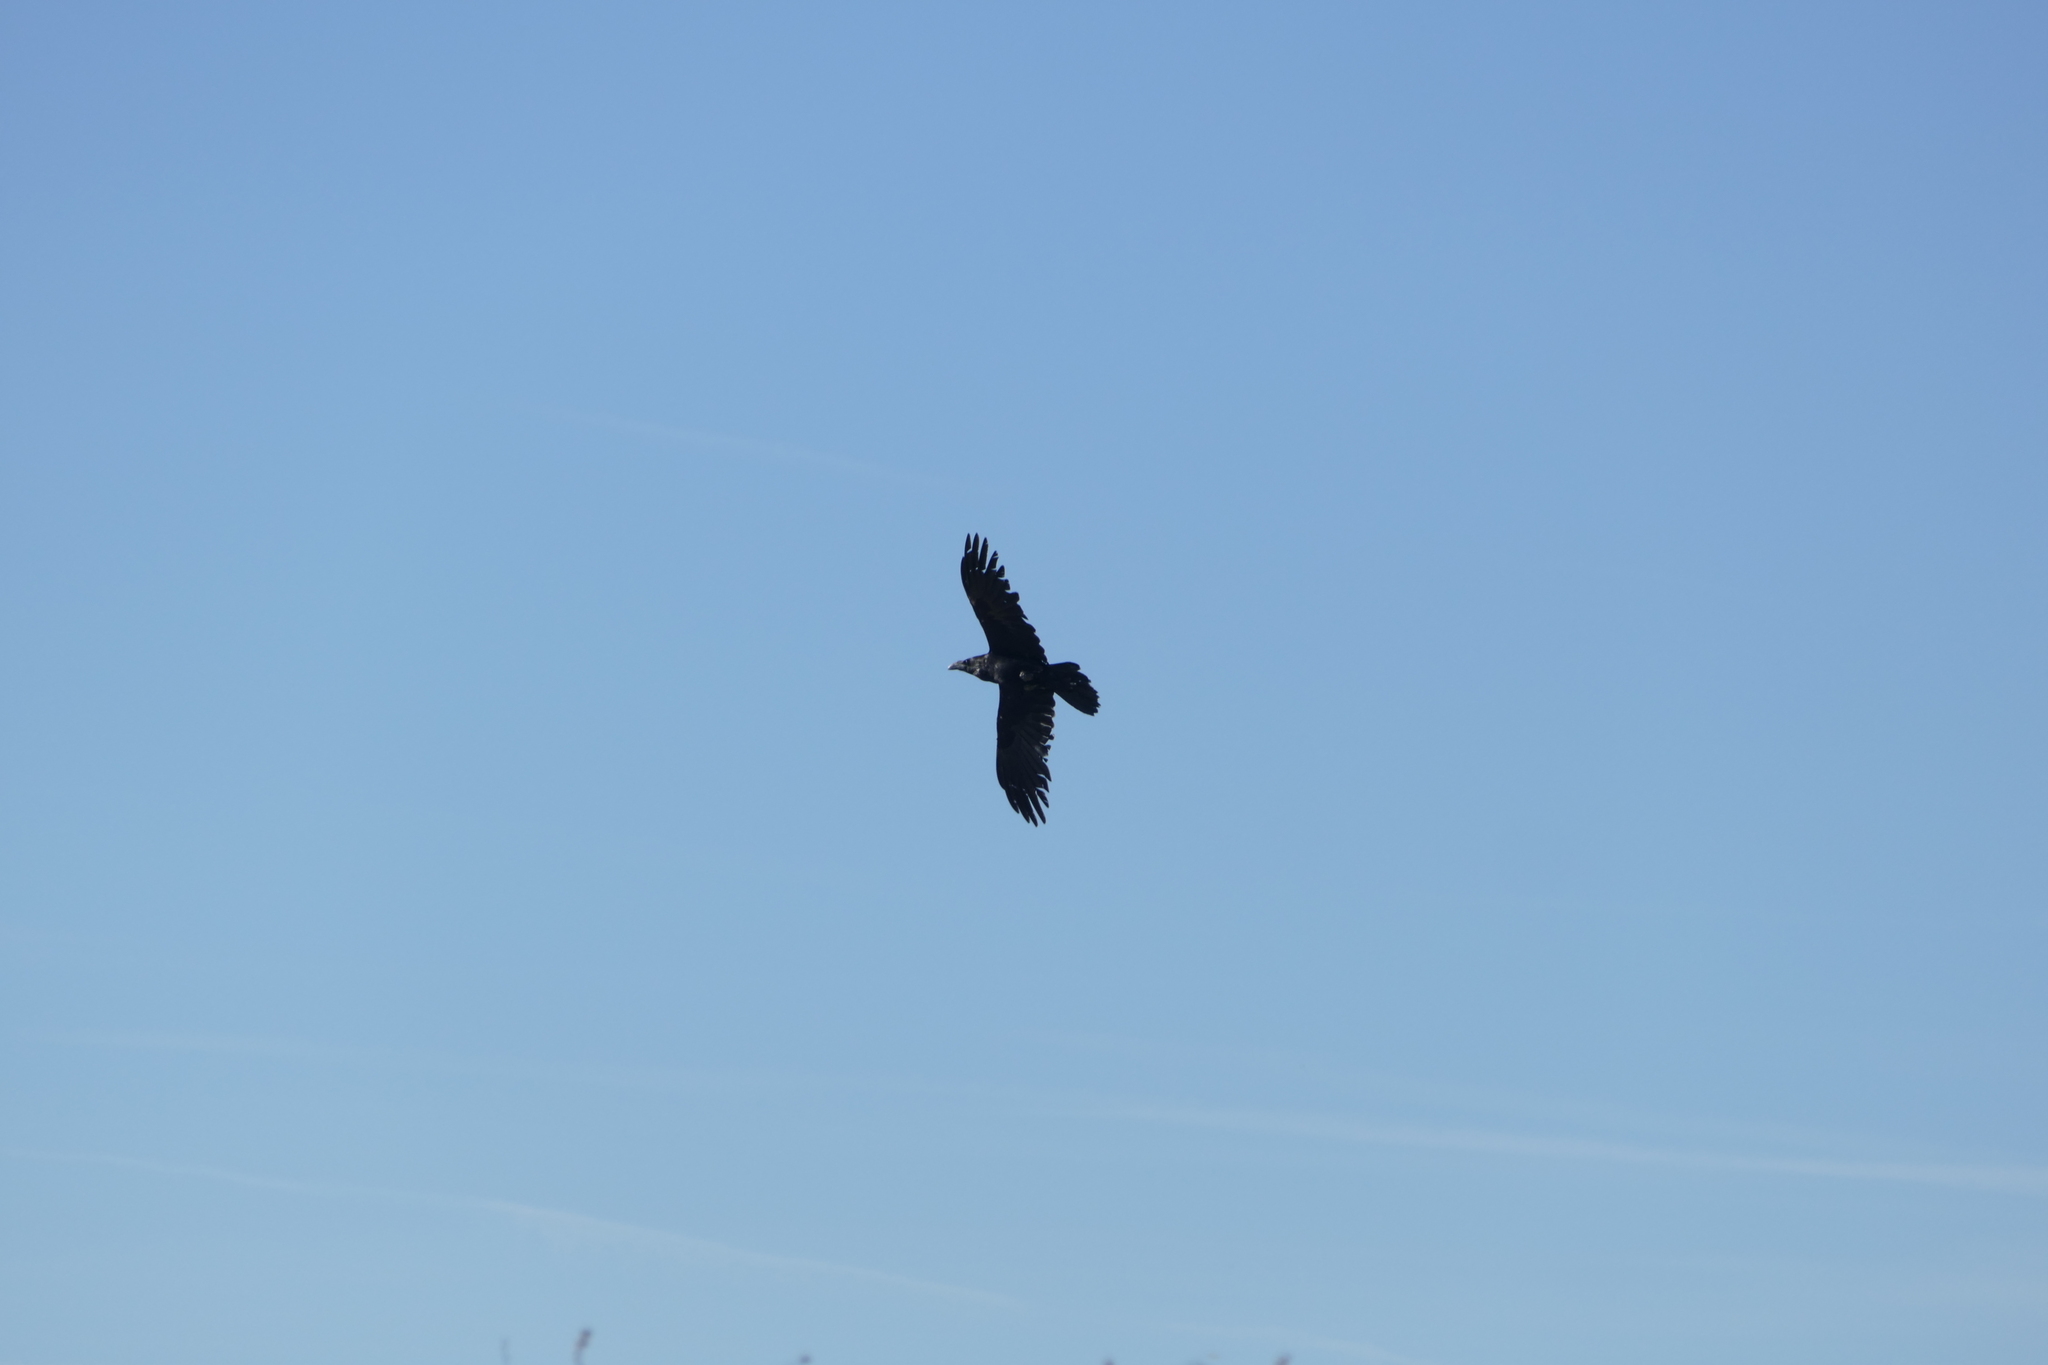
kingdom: Animalia
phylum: Chordata
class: Aves
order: Passeriformes
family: Corvidae
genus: Corvus
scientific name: Corvus corax
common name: Common raven
